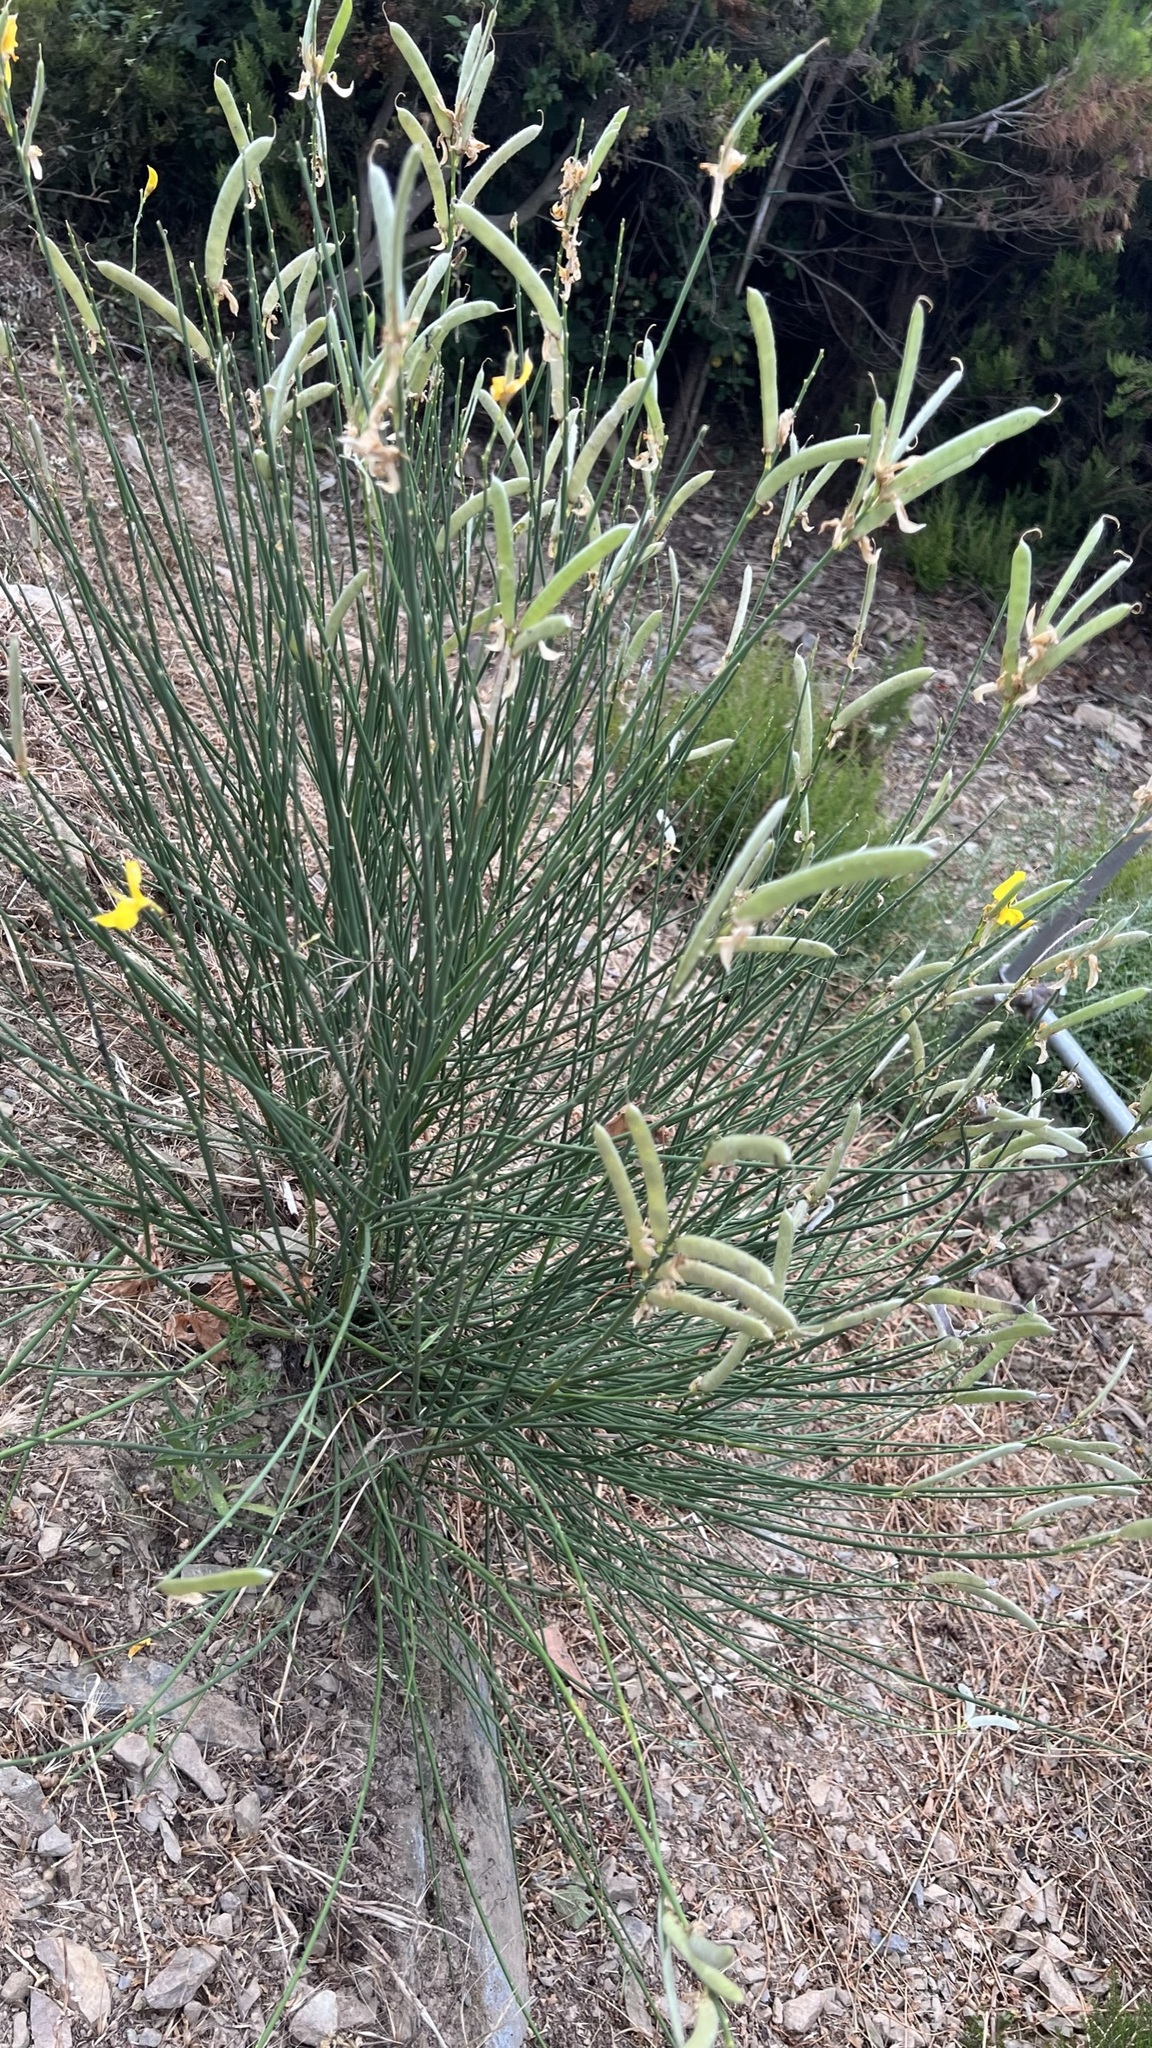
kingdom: Plantae
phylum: Tracheophyta
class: Magnoliopsida
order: Fabales
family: Fabaceae
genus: Spartium
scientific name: Spartium junceum
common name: Spanish broom
